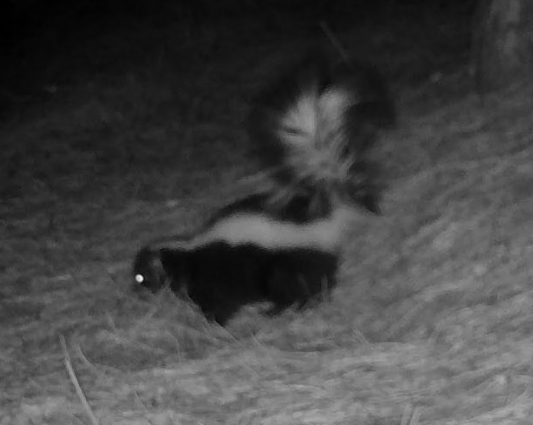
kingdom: Animalia
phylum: Chordata
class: Mammalia
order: Carnivora
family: Mephitidae
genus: Mephitis
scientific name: Mephitis mephitis
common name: Striped skunk
